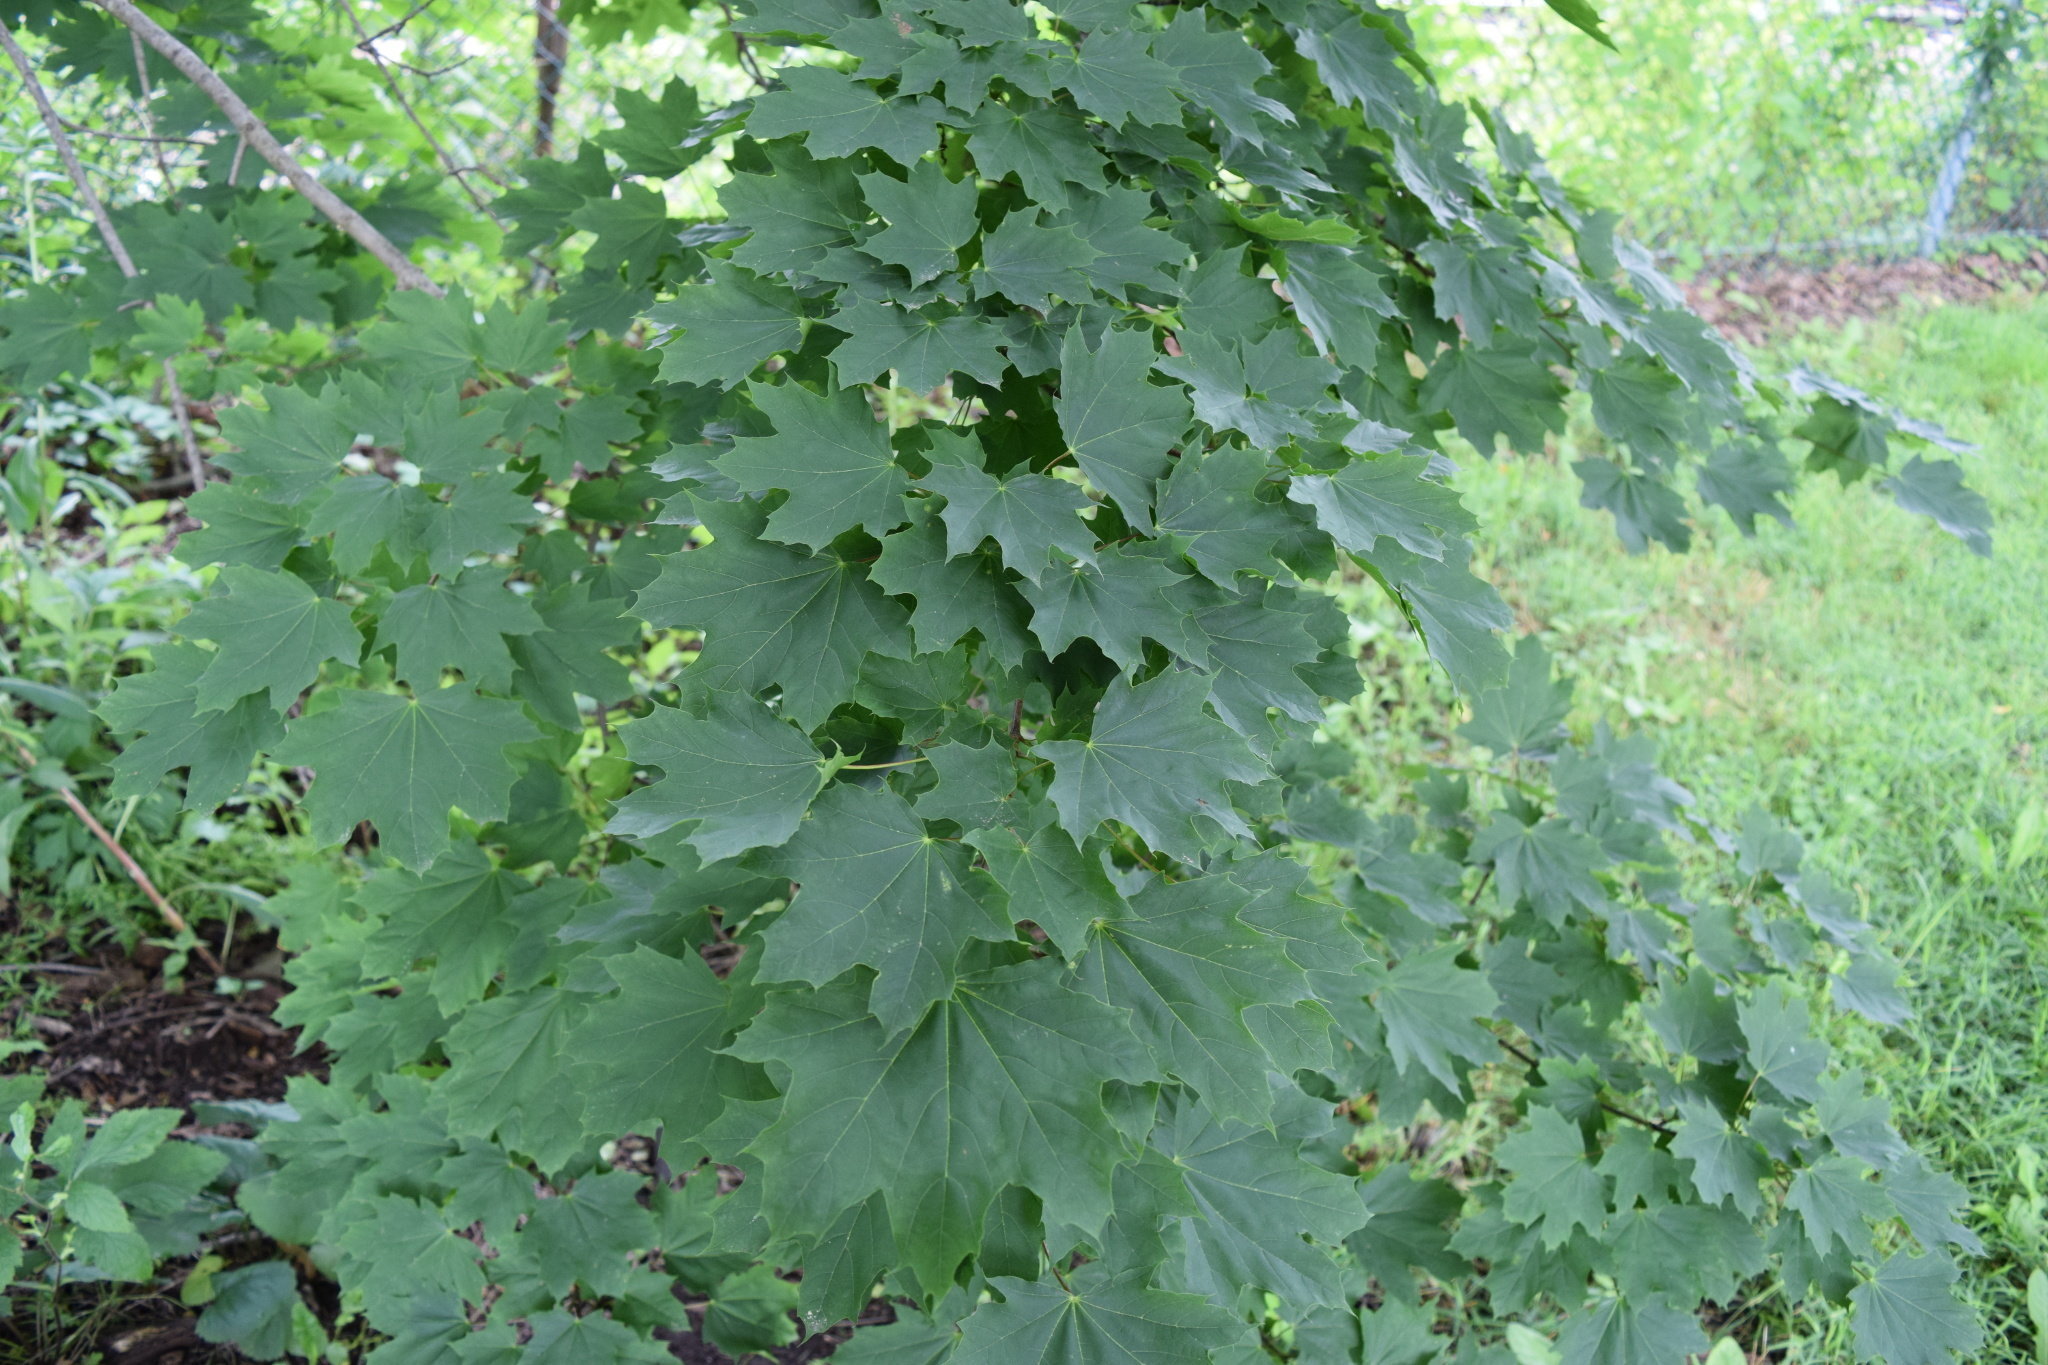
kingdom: Plantae
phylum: Tracheophyta
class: Magnoliopsida
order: Sapindales
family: Sapindaceae
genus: Acer
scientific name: Acer platanoides
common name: Norway maple
